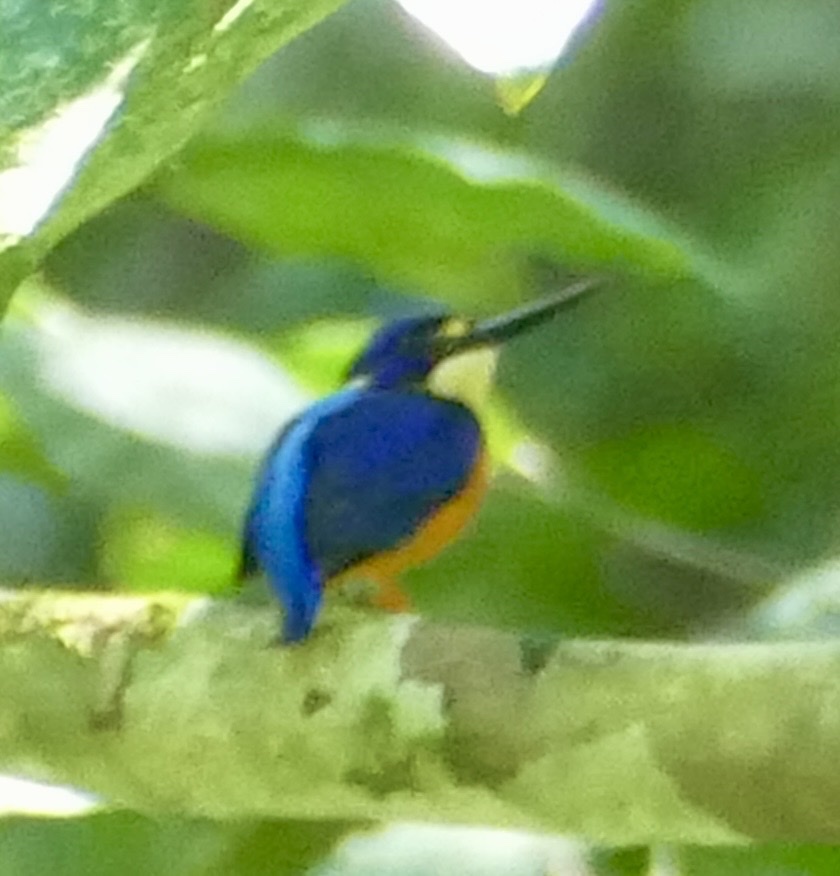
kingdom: Animalia
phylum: Chordata
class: Aves
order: Coraciiformes
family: Alcedinidae
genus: Ceyx
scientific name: Ceyx solitarius
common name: New guinea dwarf-kingfisher
